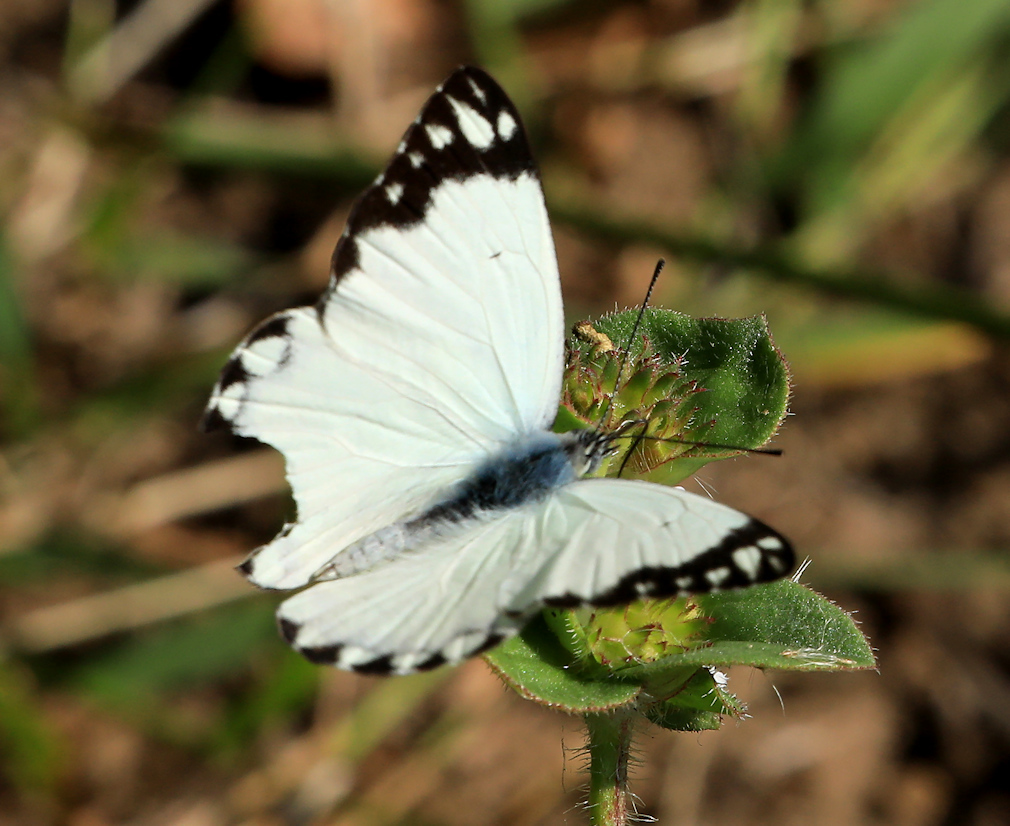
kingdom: Animalia
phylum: Arthropoda
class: Insecta
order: Lepidoptera
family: Pieridae
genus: Belenois
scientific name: Belenois creona
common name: African caper white
